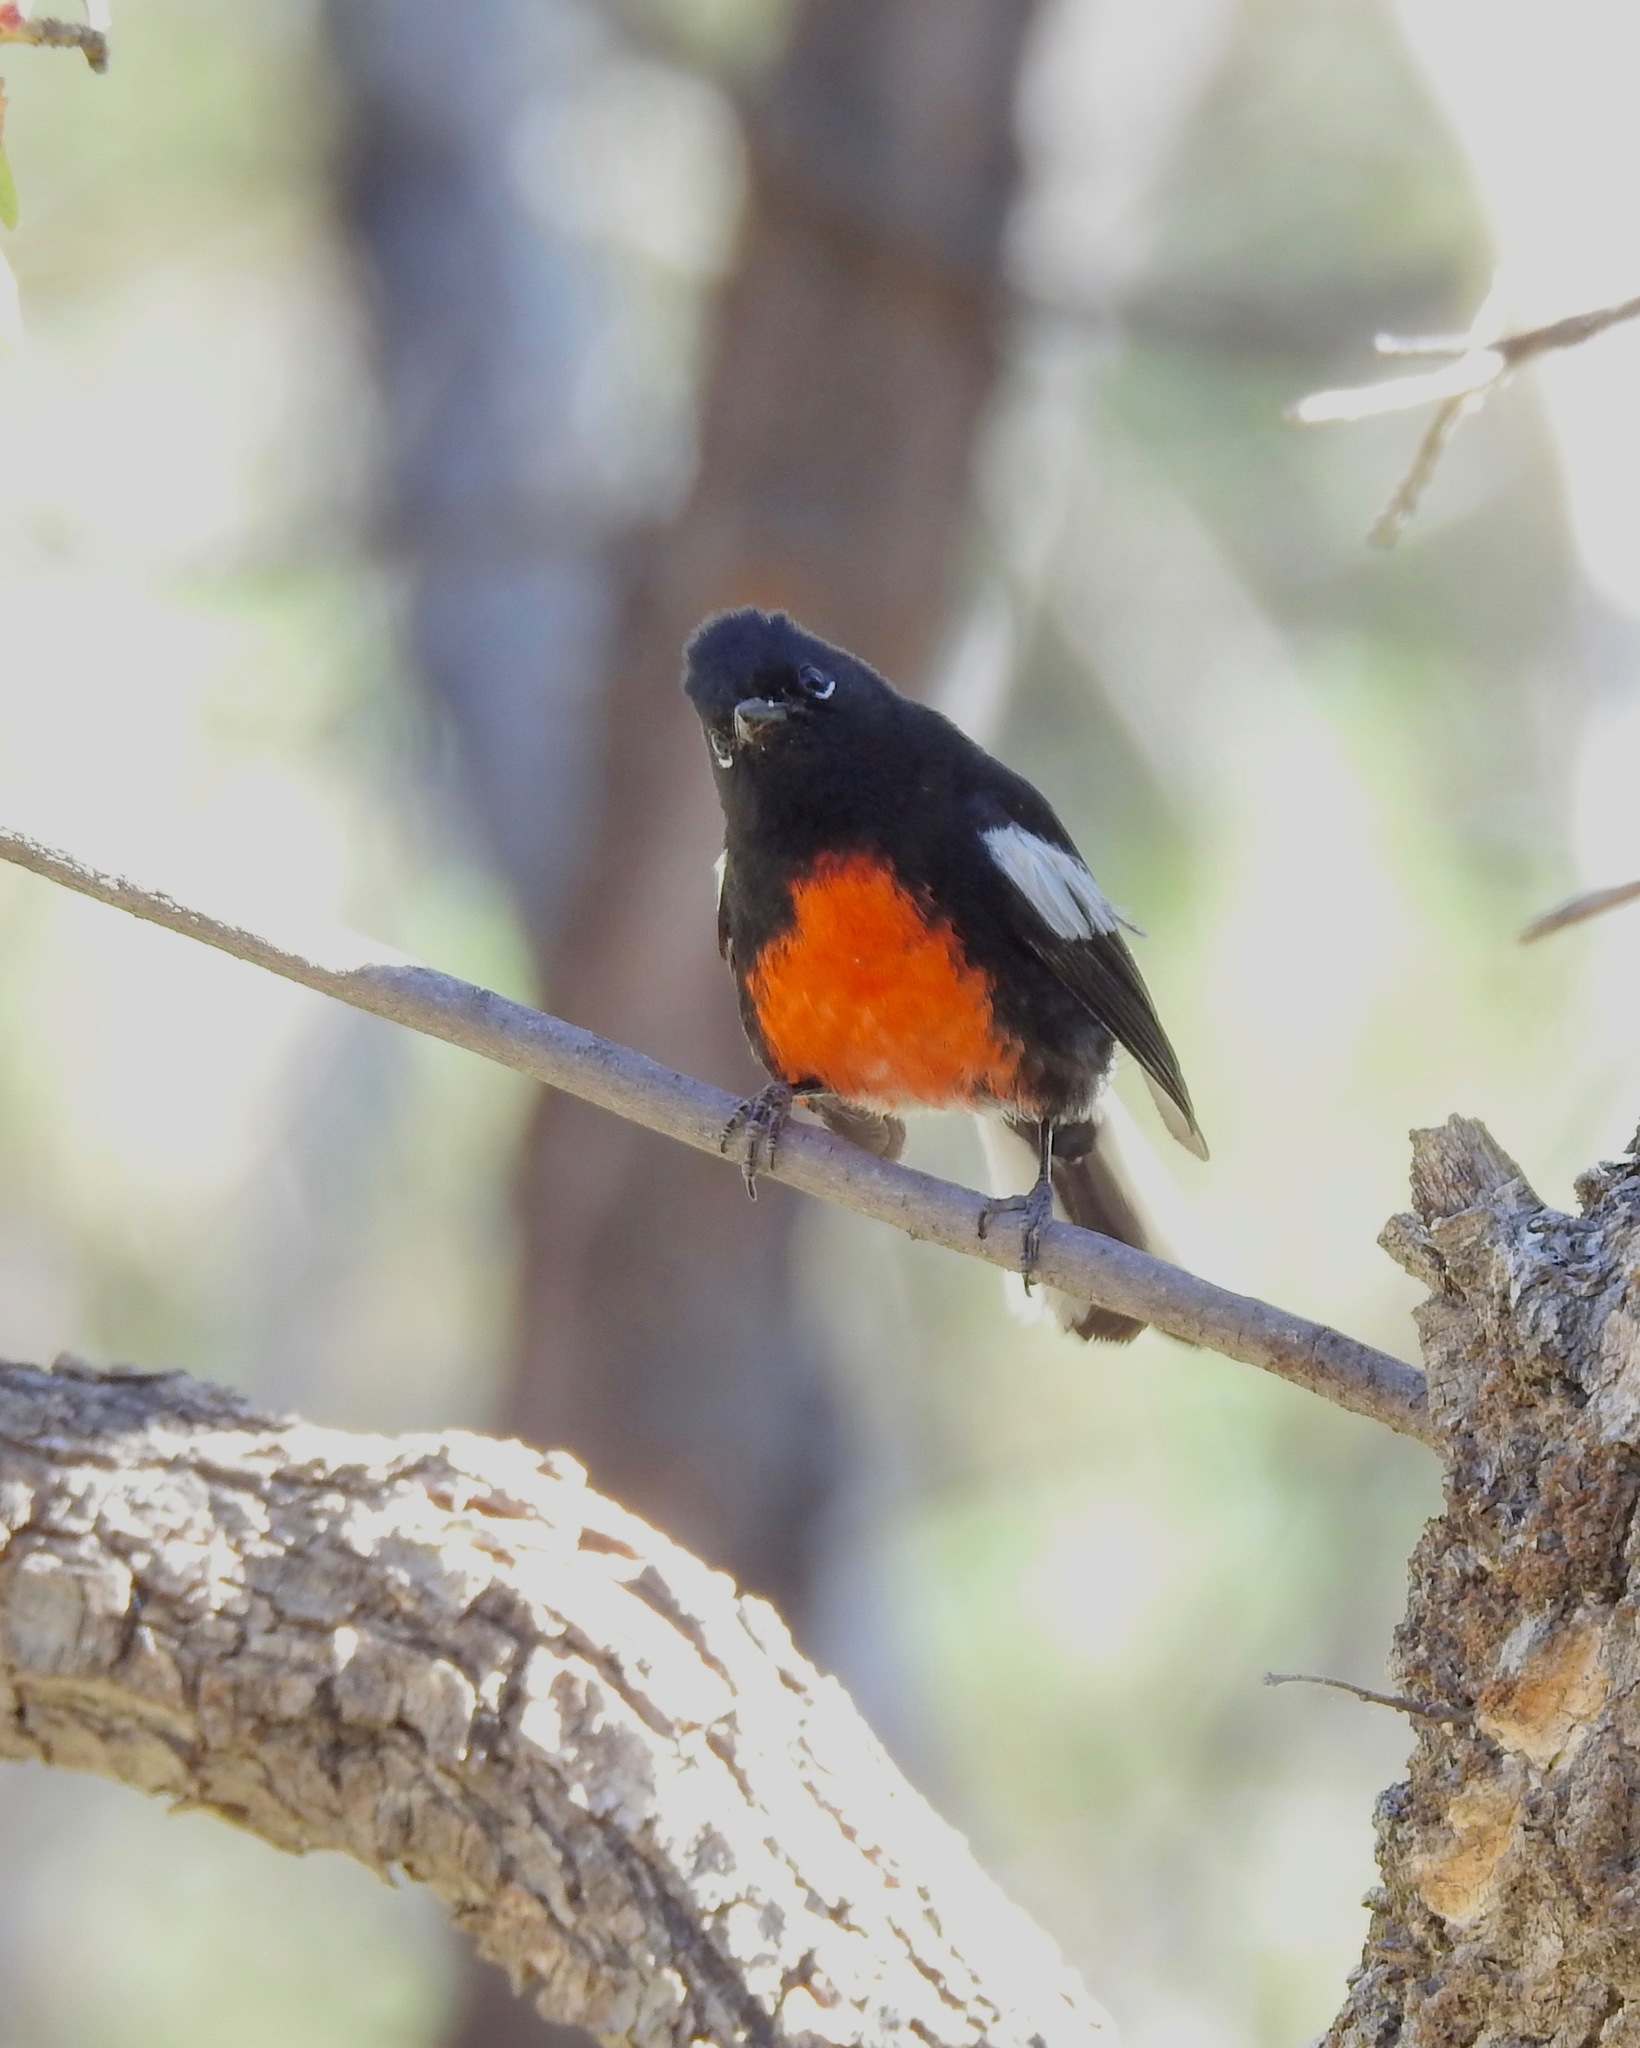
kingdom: Animalia
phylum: Chordata
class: Aves
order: Passeriformes
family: Parulidae
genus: Myioborus
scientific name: Myioborus pictus
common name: Painted whitestart
